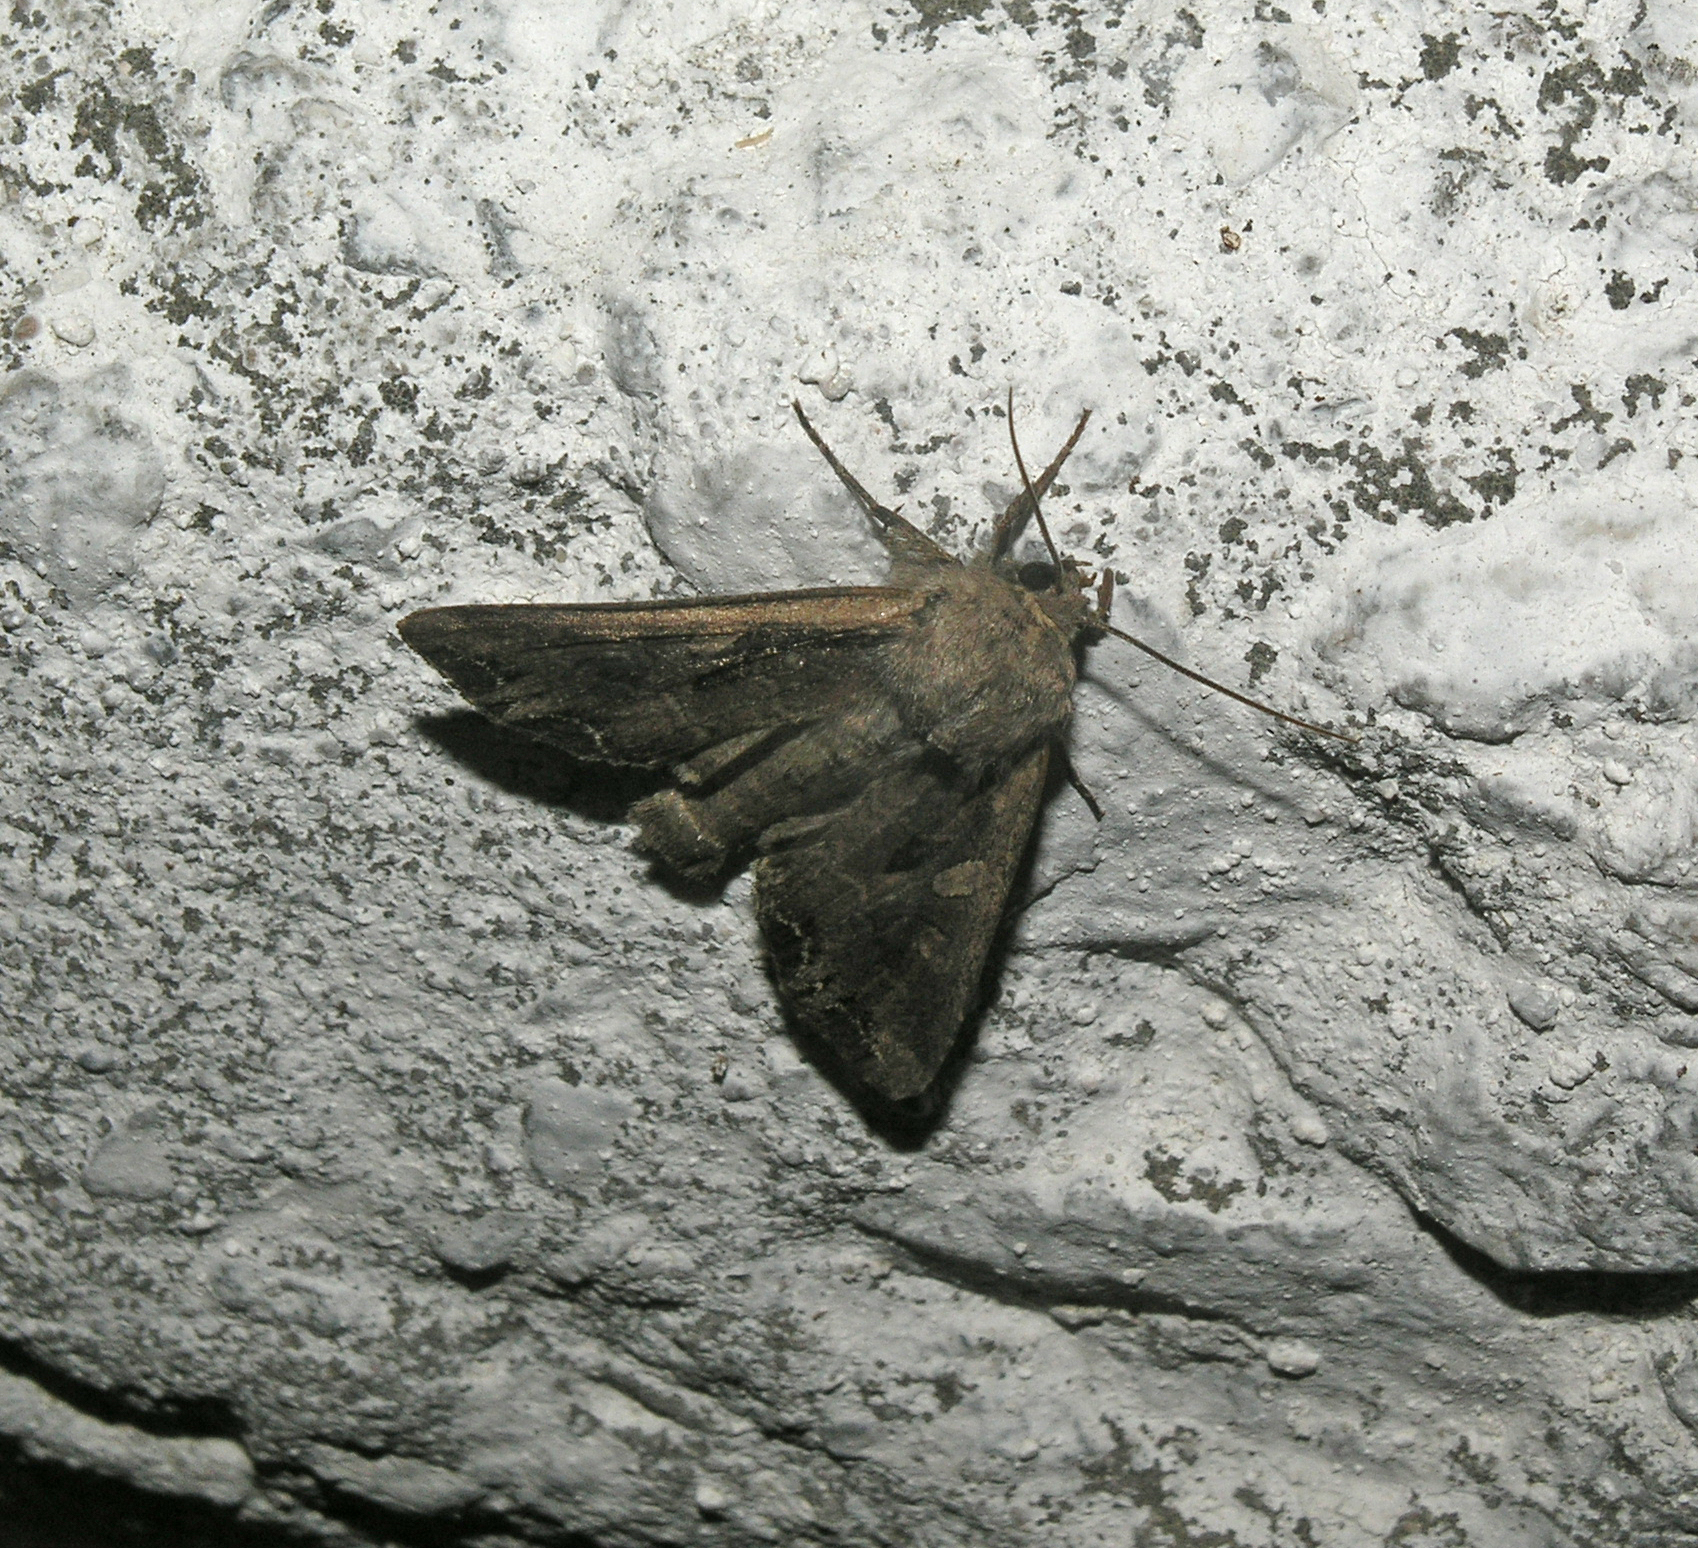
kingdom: Animalia
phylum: Arthropoda
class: Insecta
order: Lepidoptera
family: Noctuidae
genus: Lacanobia
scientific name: Lacanobia suasa
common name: Dog's tooth
